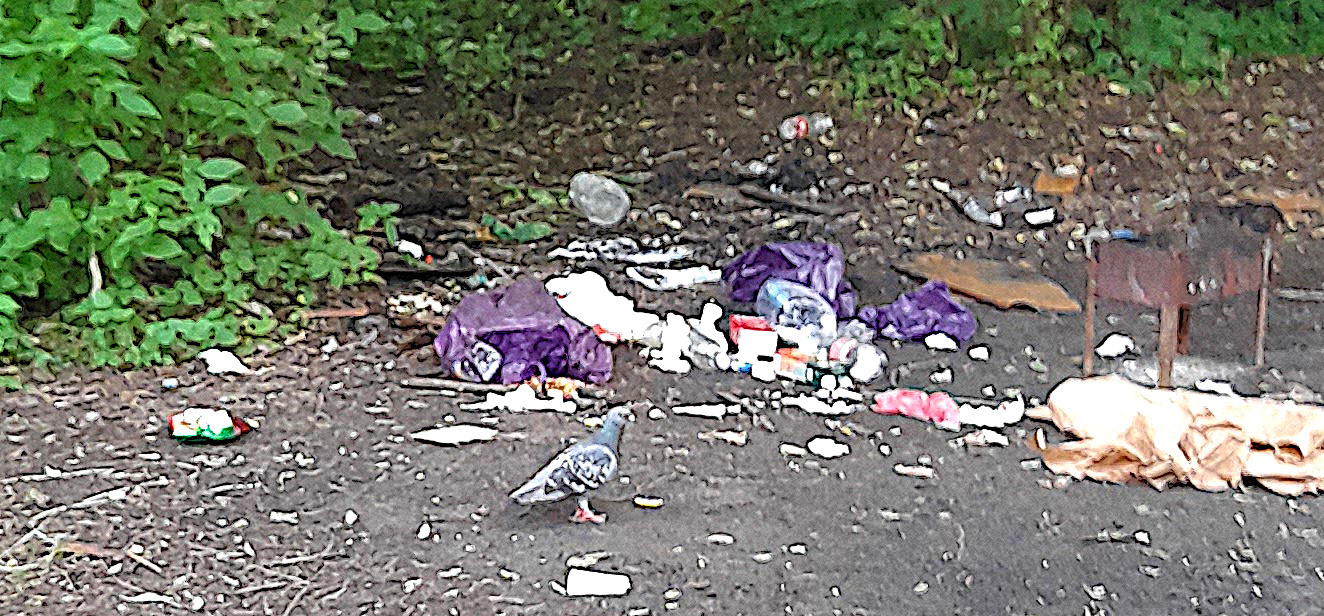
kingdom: Animalia
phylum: Chordata
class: Aves
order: Columbiformes
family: Columbidae
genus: Columba
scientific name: Columba livia
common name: Rock pigeon
